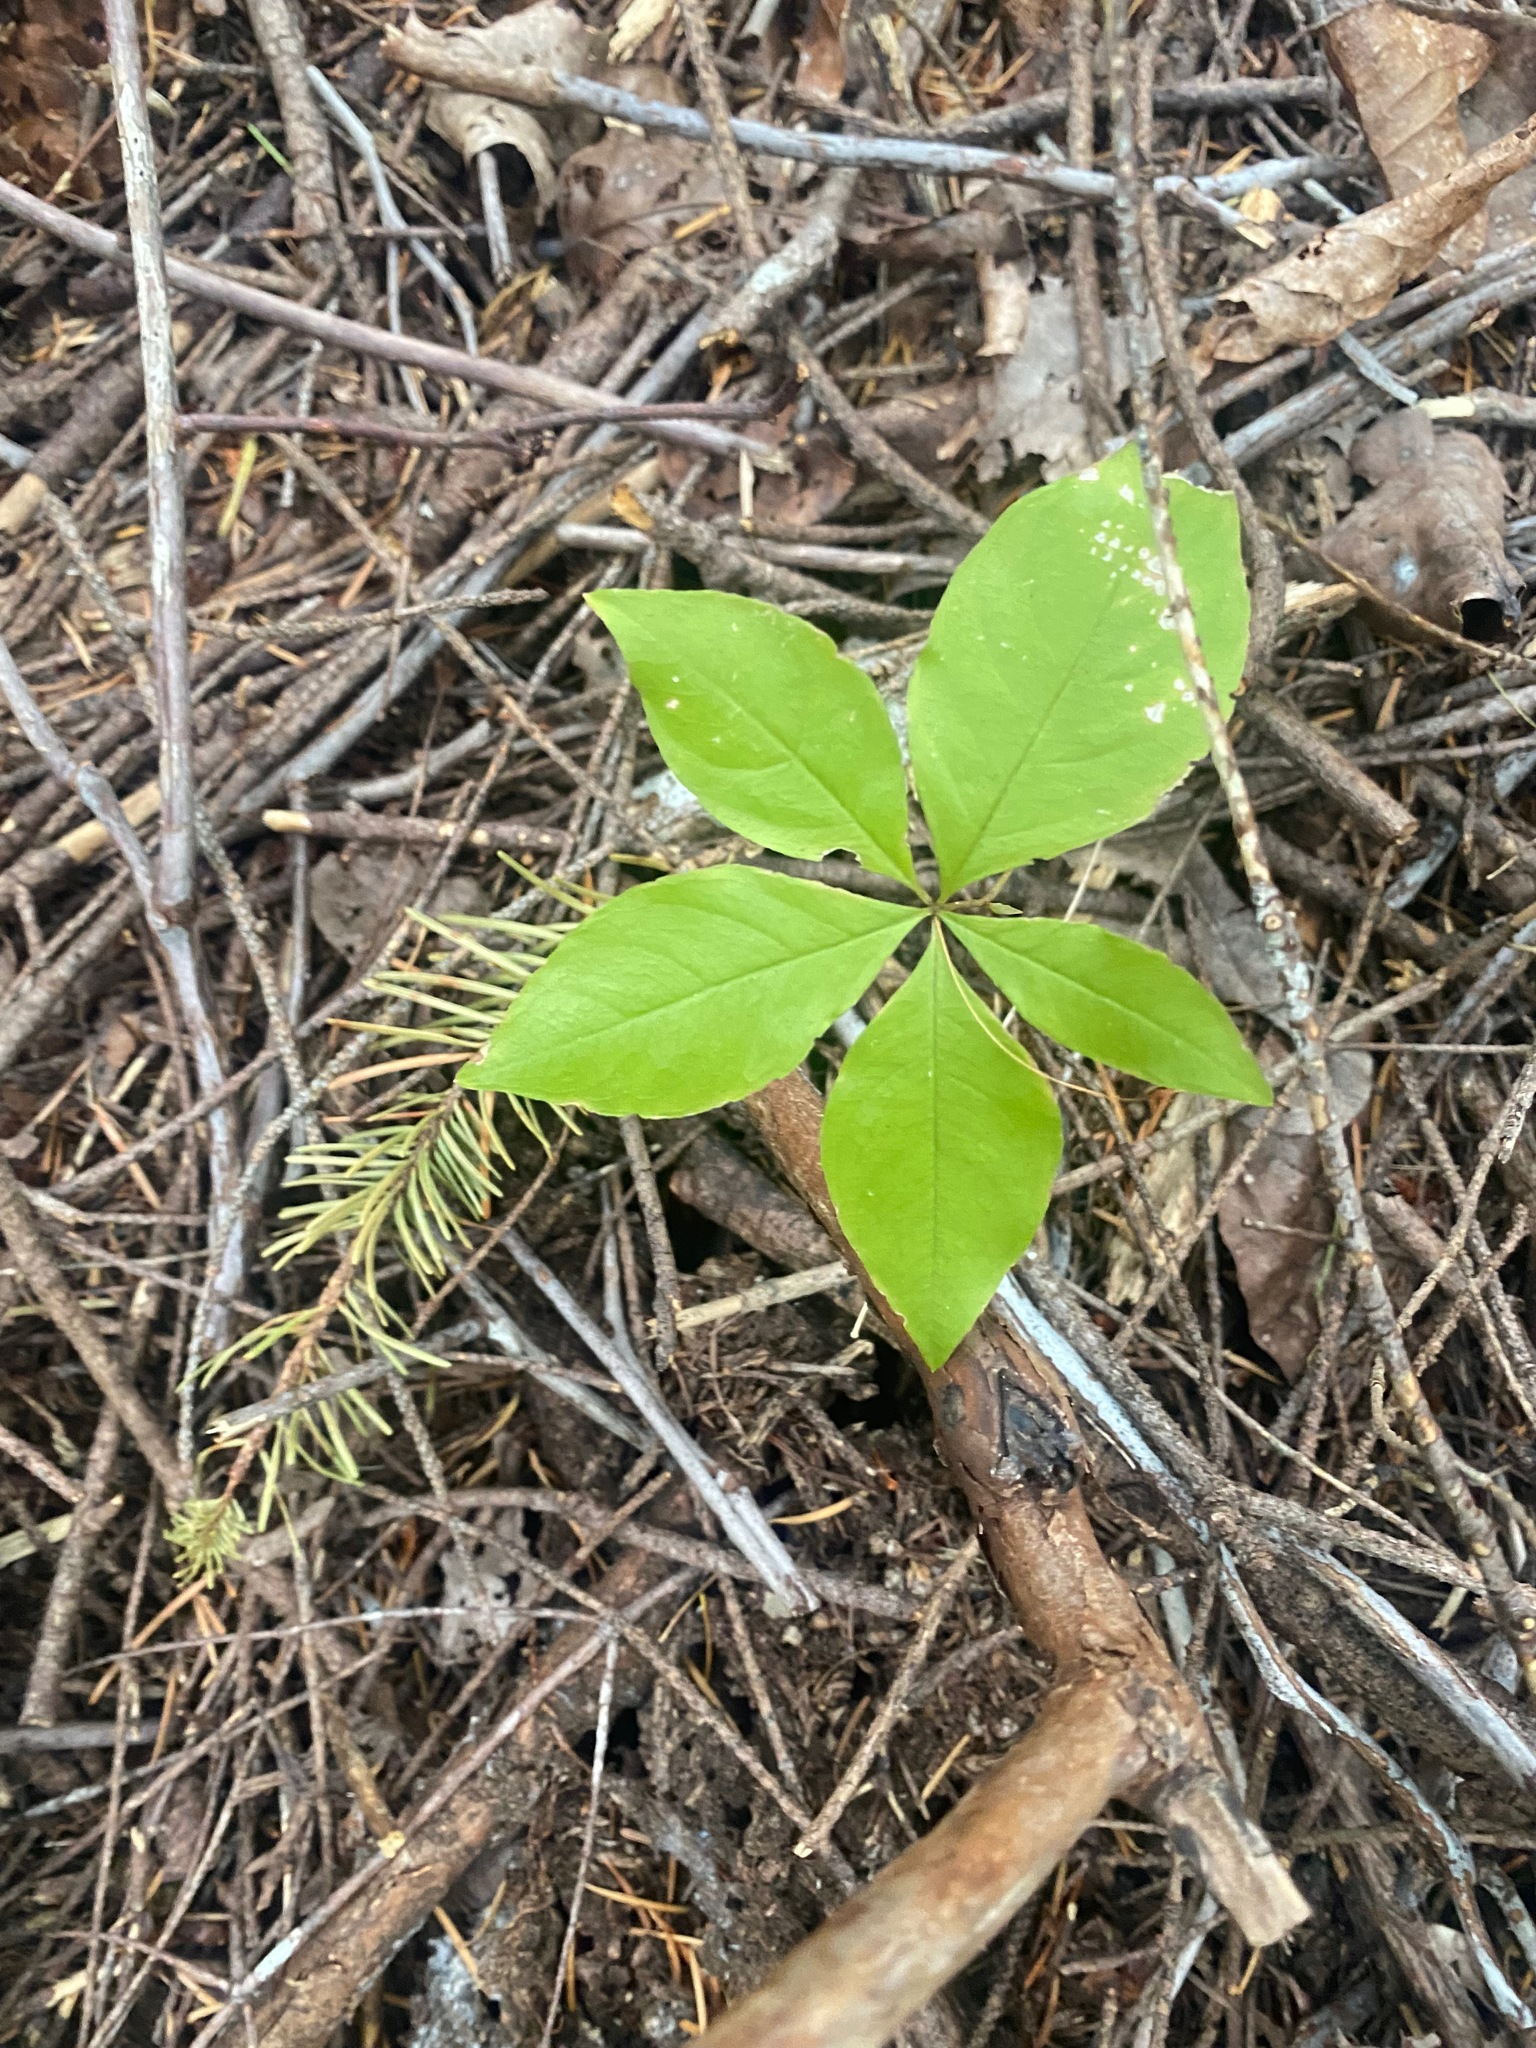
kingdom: Plantae
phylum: Tracheophyta
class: Magnoliopsida
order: Ericales
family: Primulaceae
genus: Lysimachia
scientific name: Lysimachia latifolia
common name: Pacific starflower
